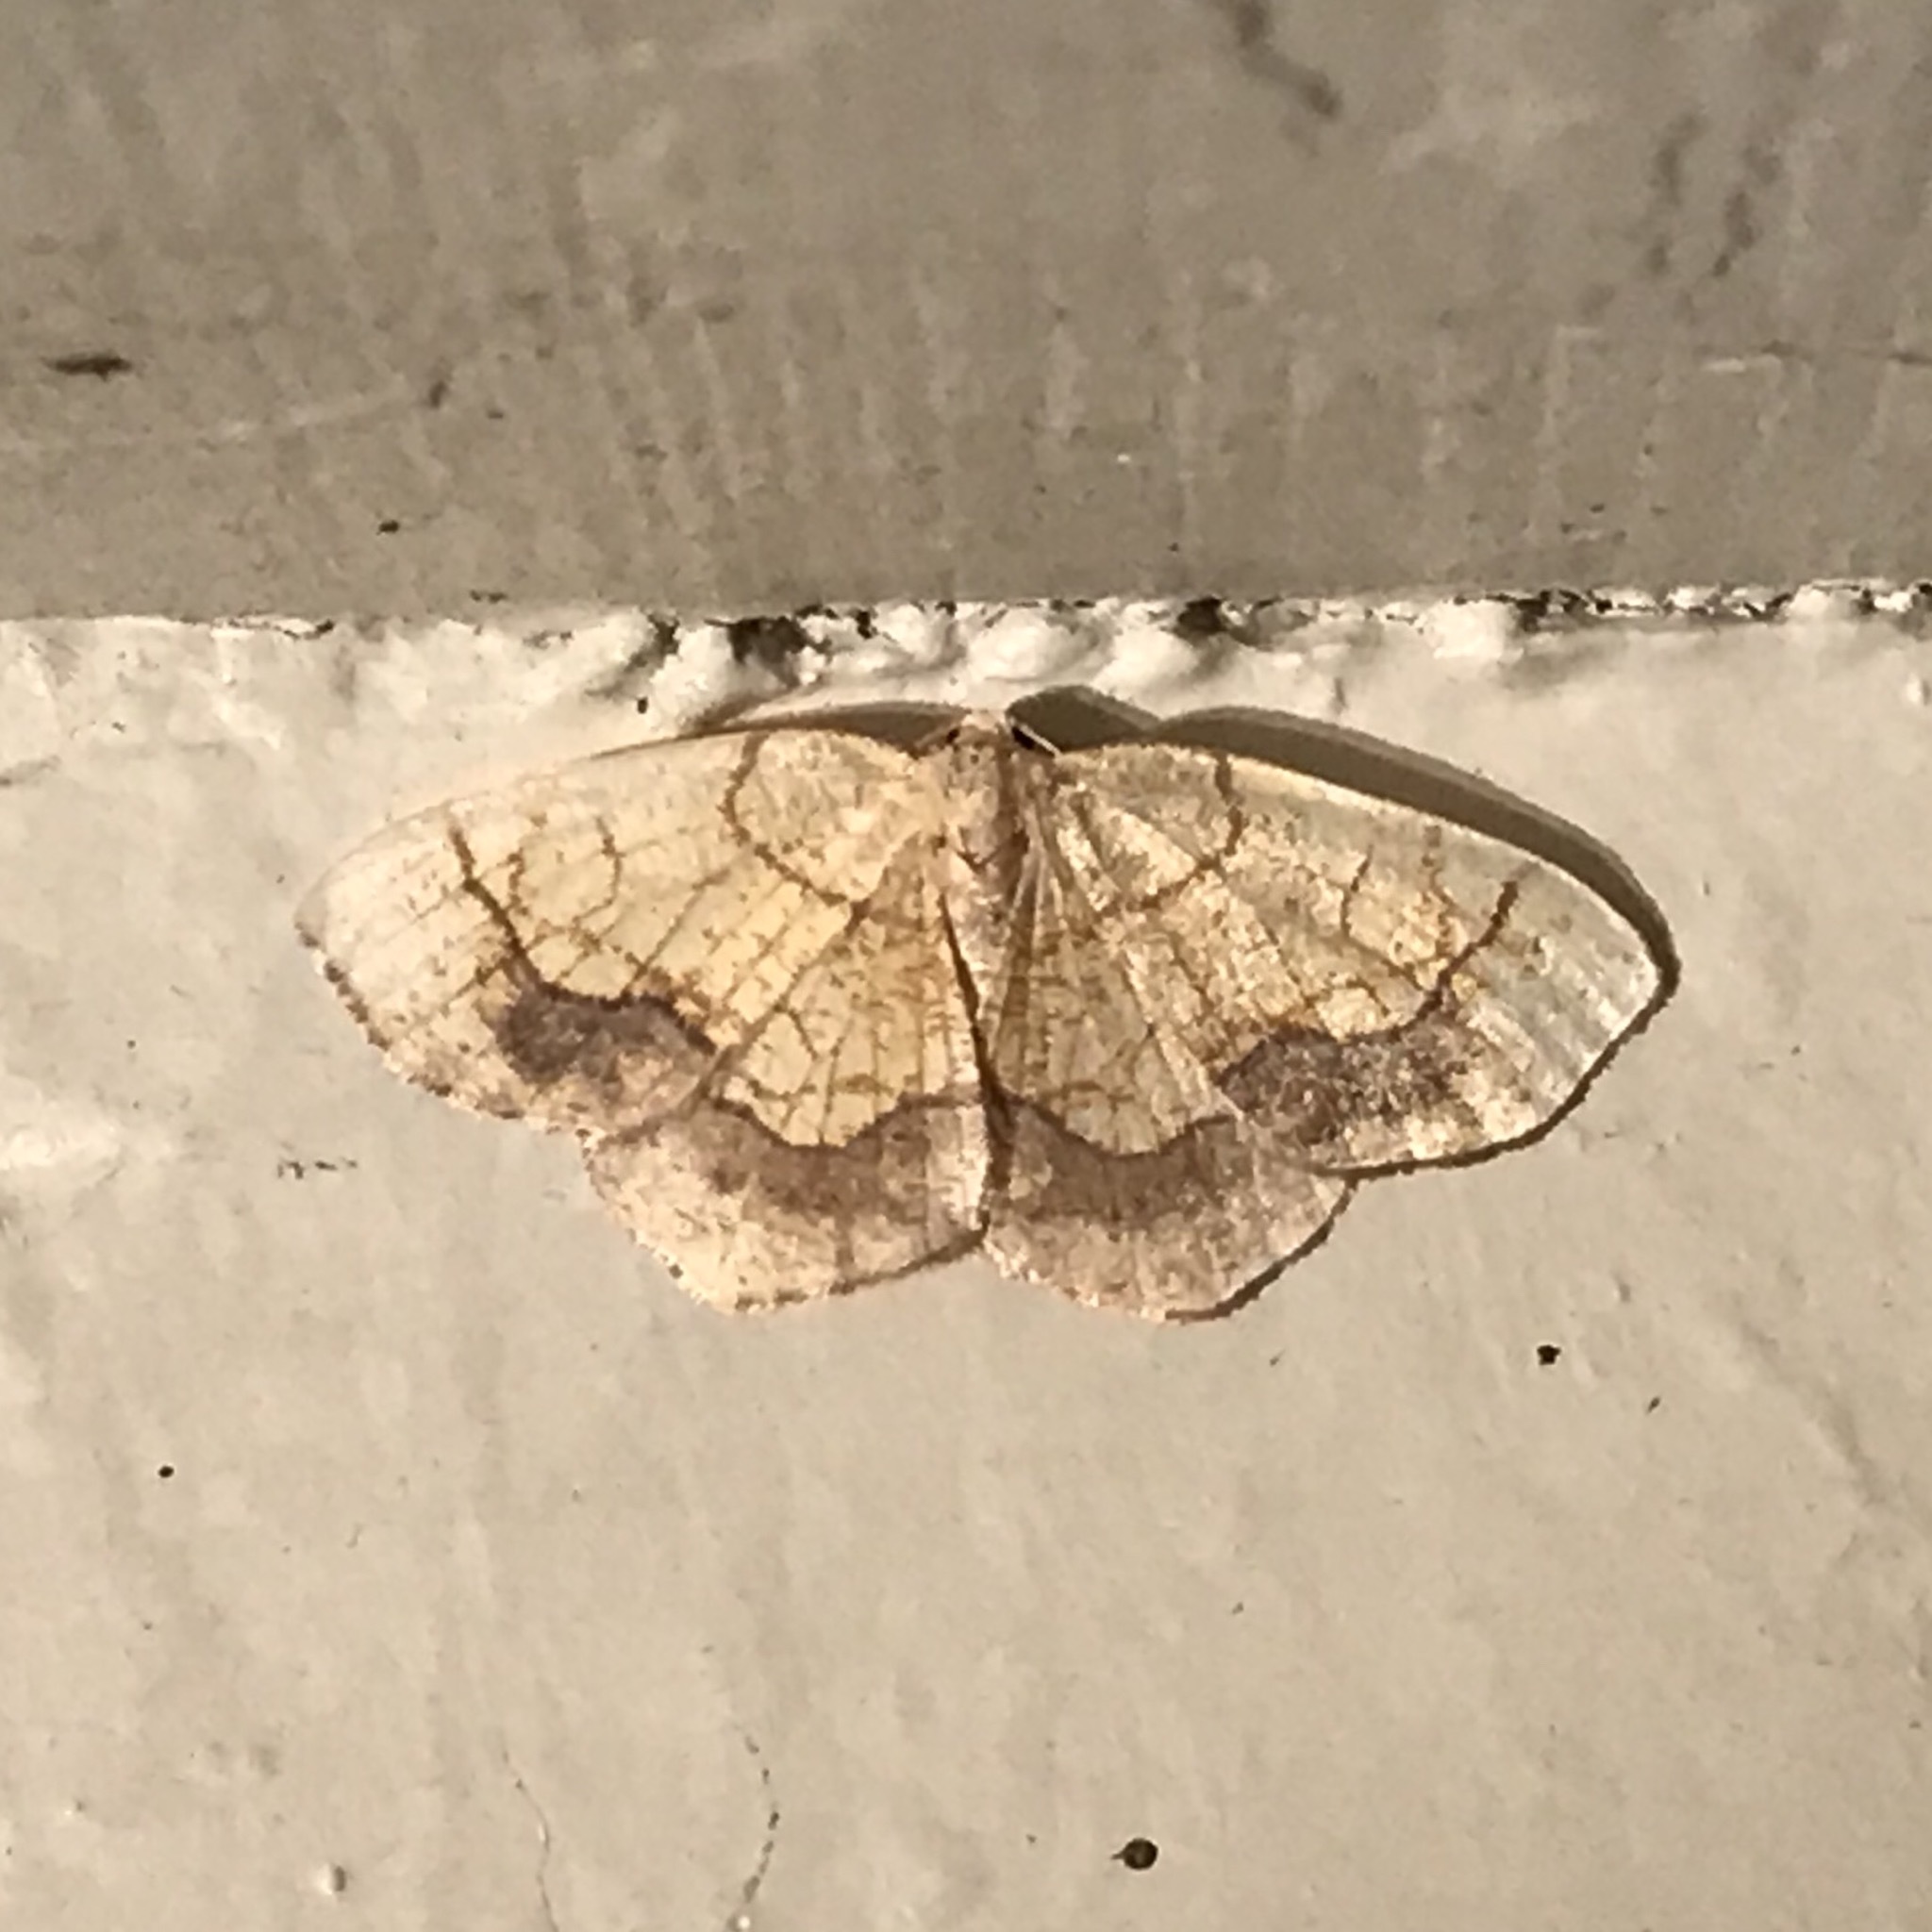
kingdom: Animalia
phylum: Arthropoda
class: Insecta
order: Lepidoptera
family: Geometridae
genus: Nematocampa
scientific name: Nematocampa resistaria
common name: Horned spanworm moth
